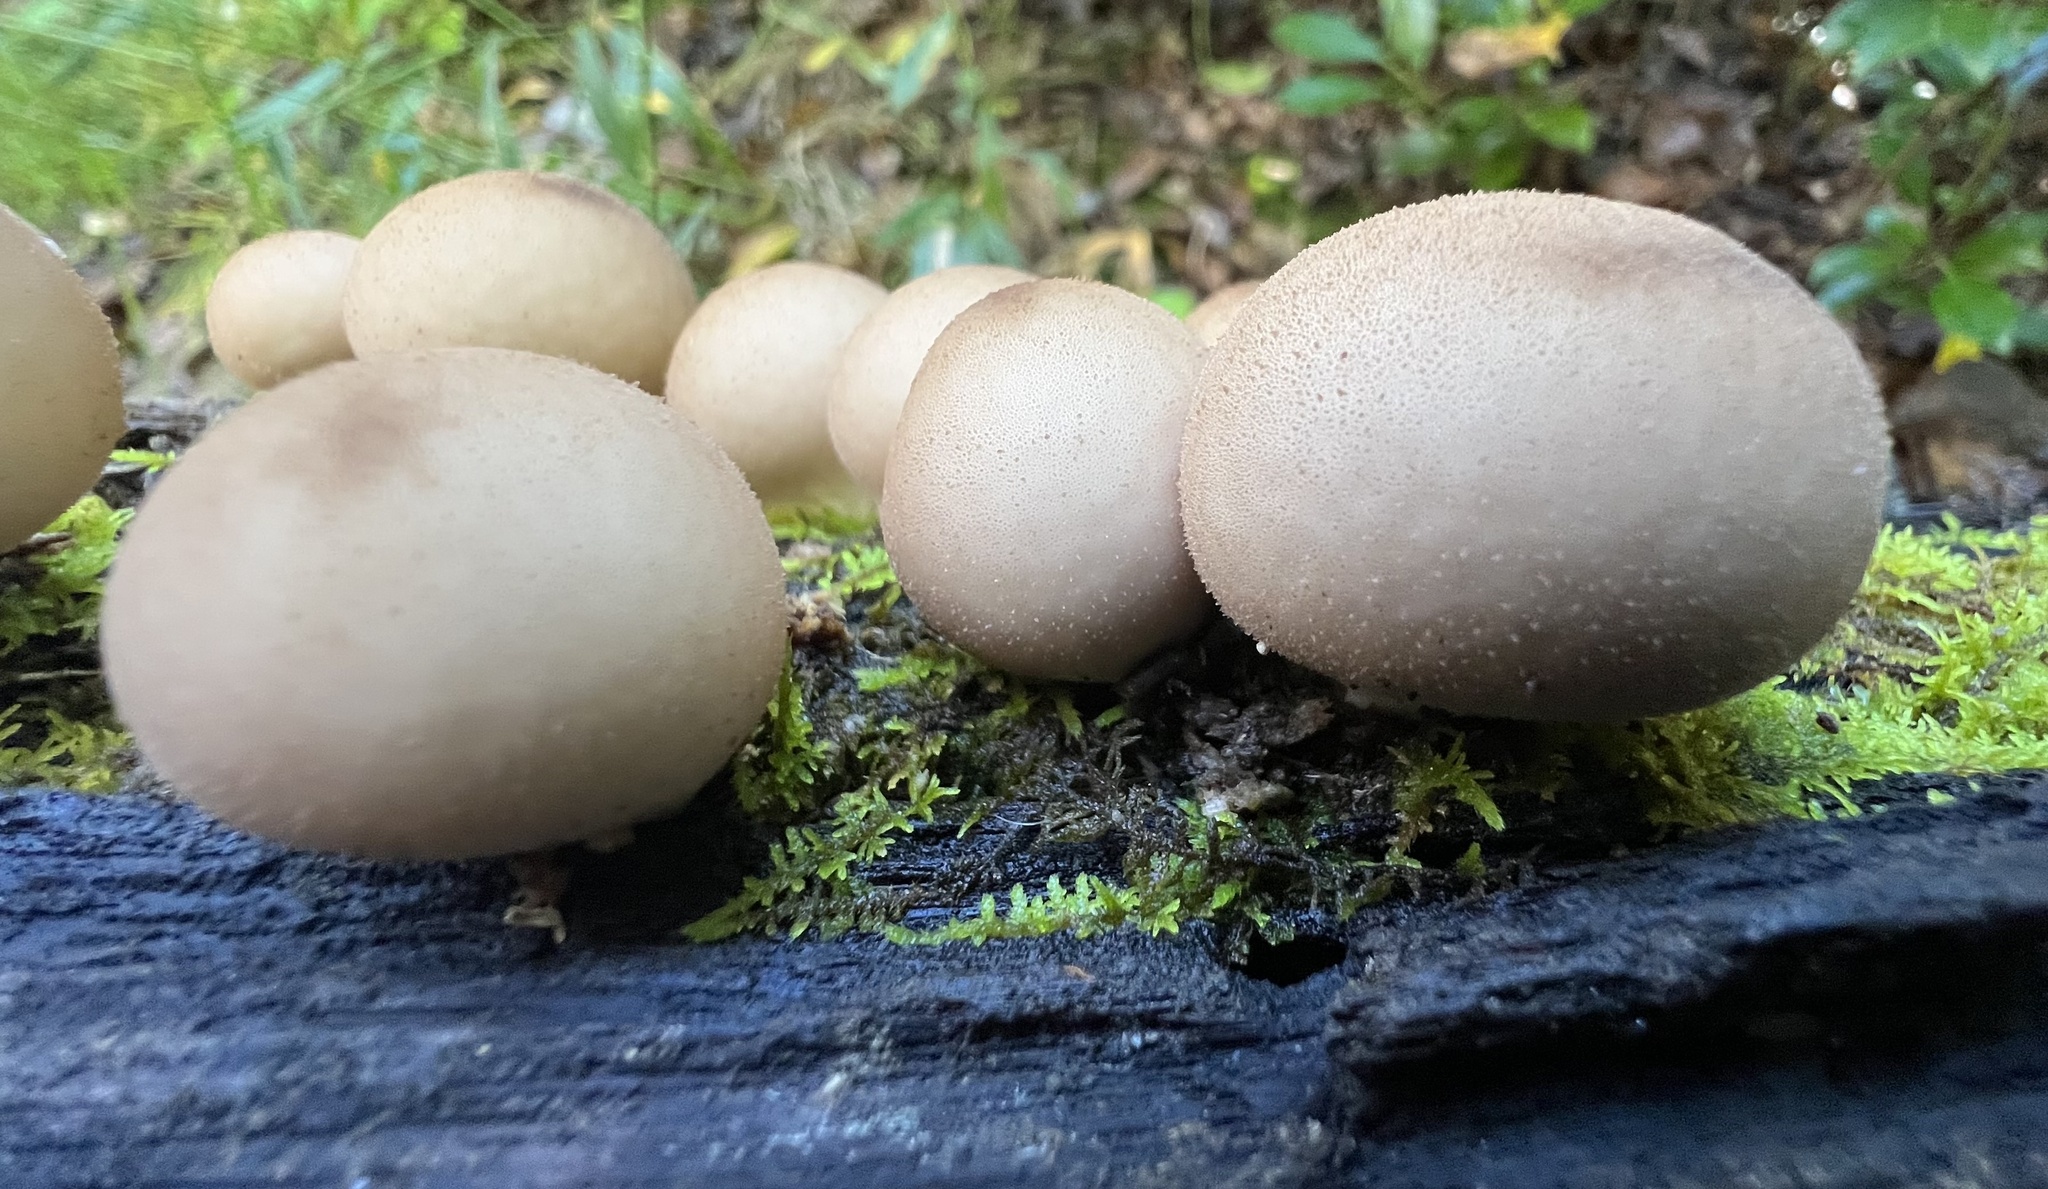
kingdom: Fungi
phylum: Basidiomycota
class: Agaricomycetes
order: Agaricales
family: Lycoperdaceae
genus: Apioperdon
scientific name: Apioperdon pyriforme
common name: Pear-shaped puffball
